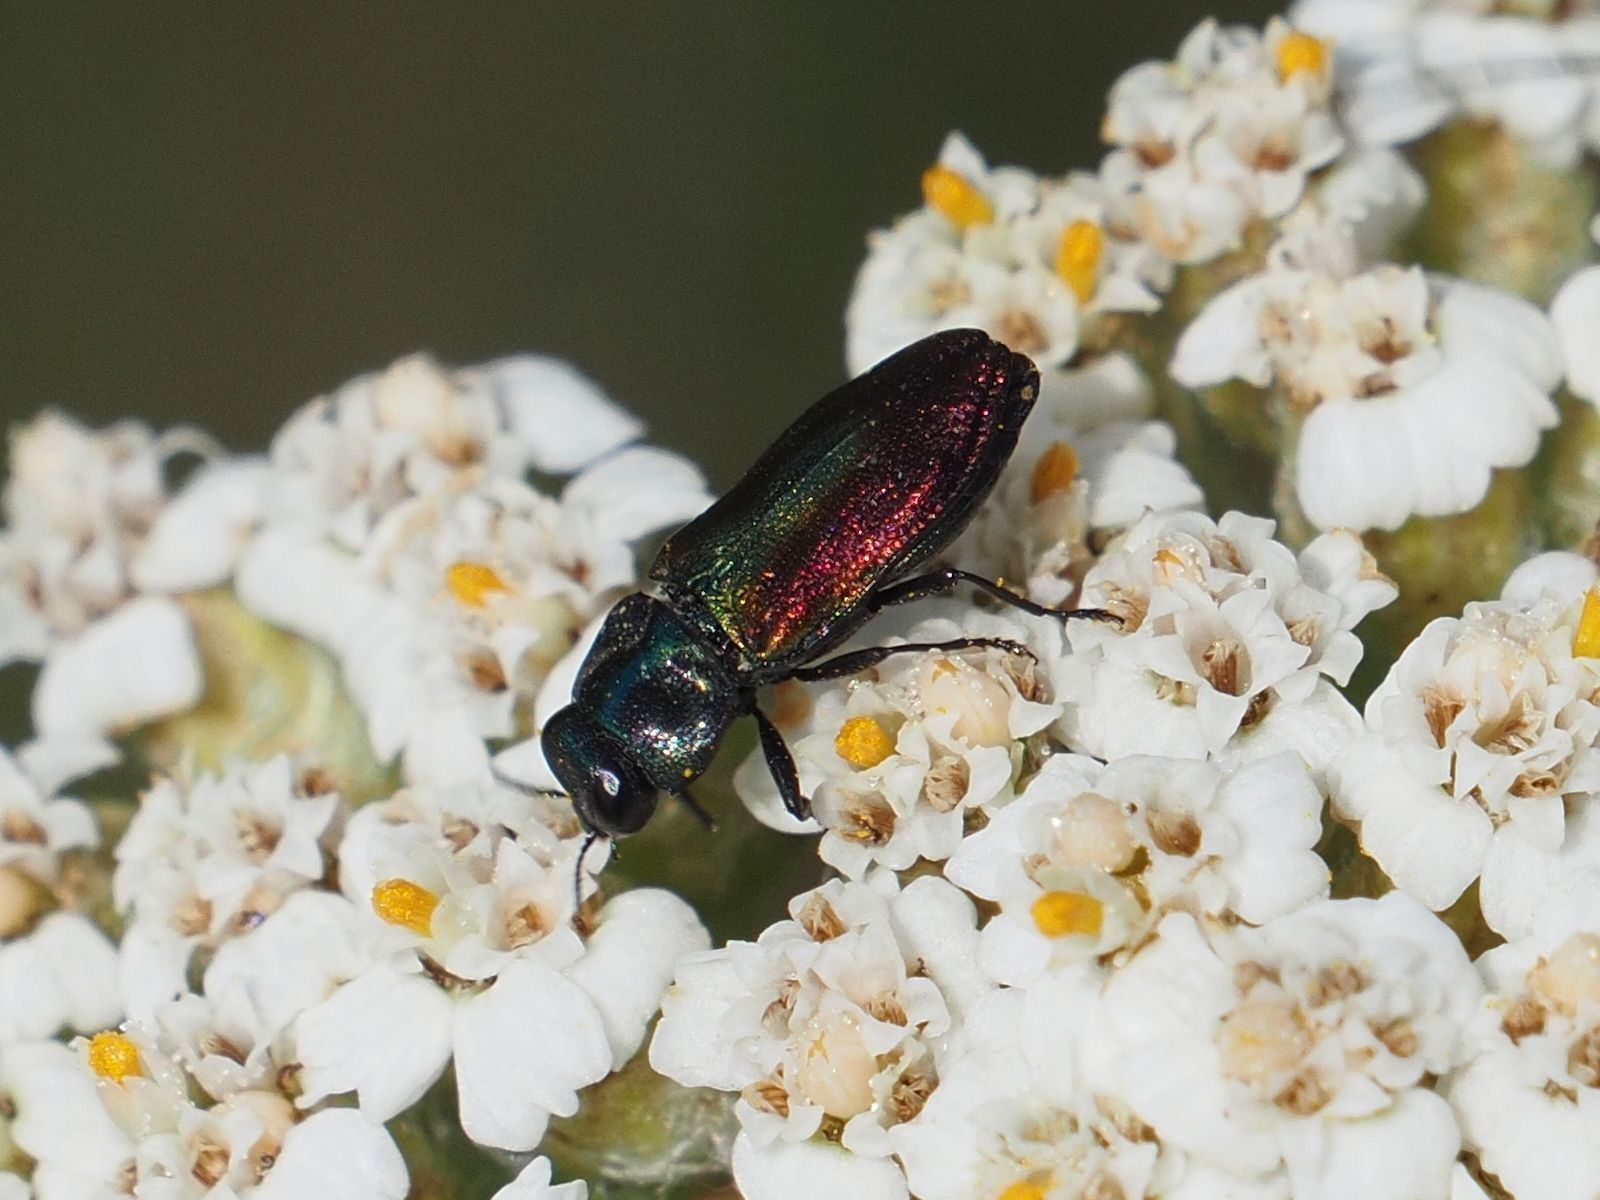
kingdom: Animalia
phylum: Arthropoda
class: Insecta
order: Coleoptera
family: Buprestidae
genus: Anthaxia
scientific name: Anthaxia fulgurans
